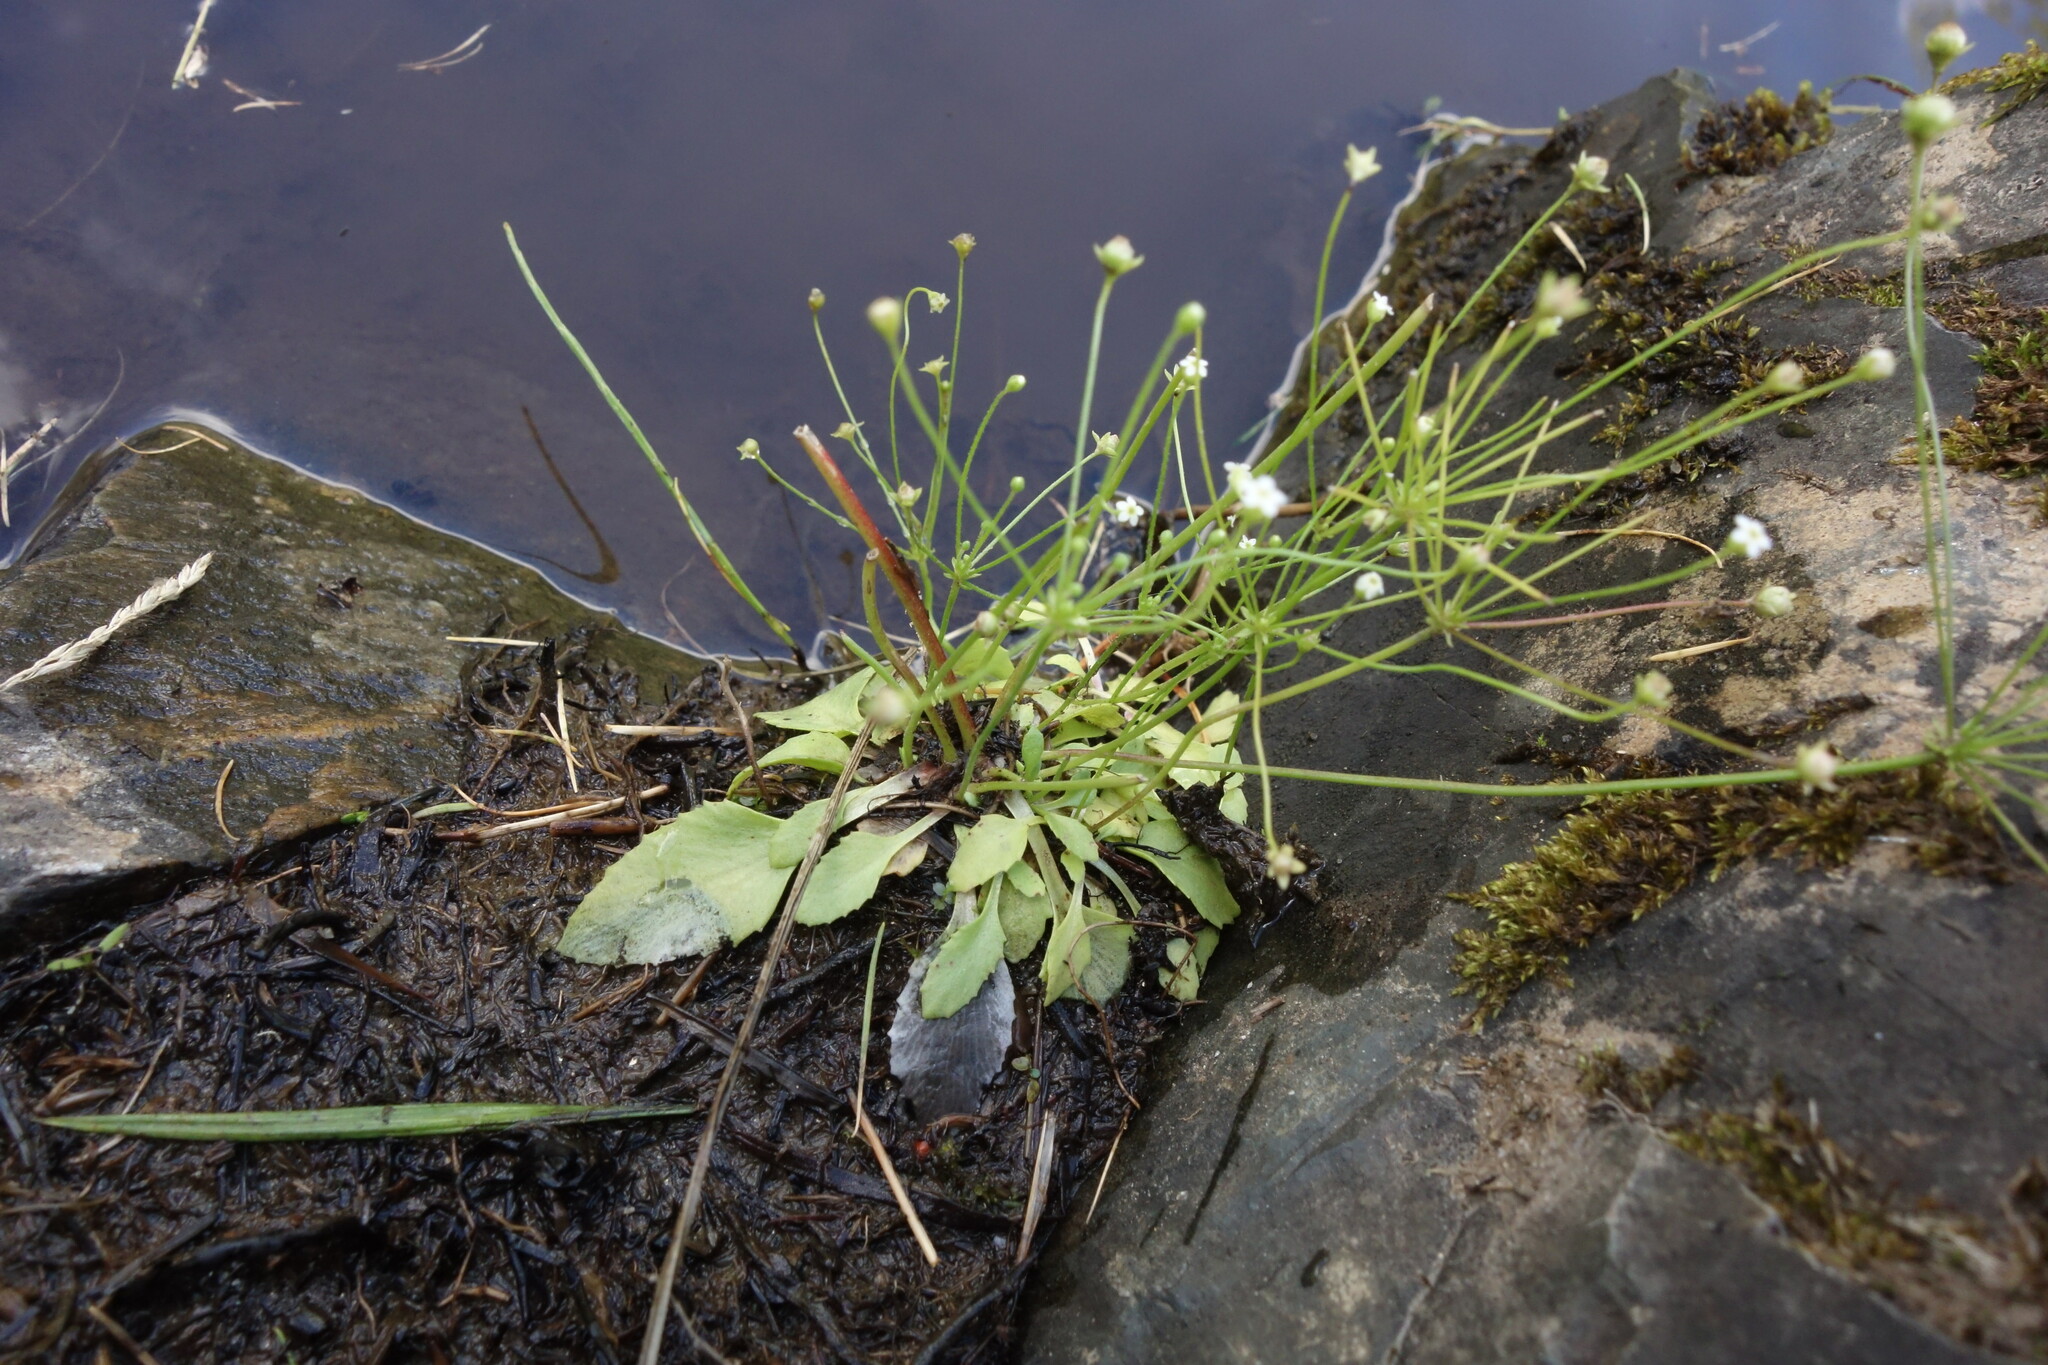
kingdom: Plantae
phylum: Tracheophyta
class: Magnoliopsida
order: Ericales
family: Primulaceae
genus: Androsace
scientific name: Androsace filiformis
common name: Filiform rock jasmine
